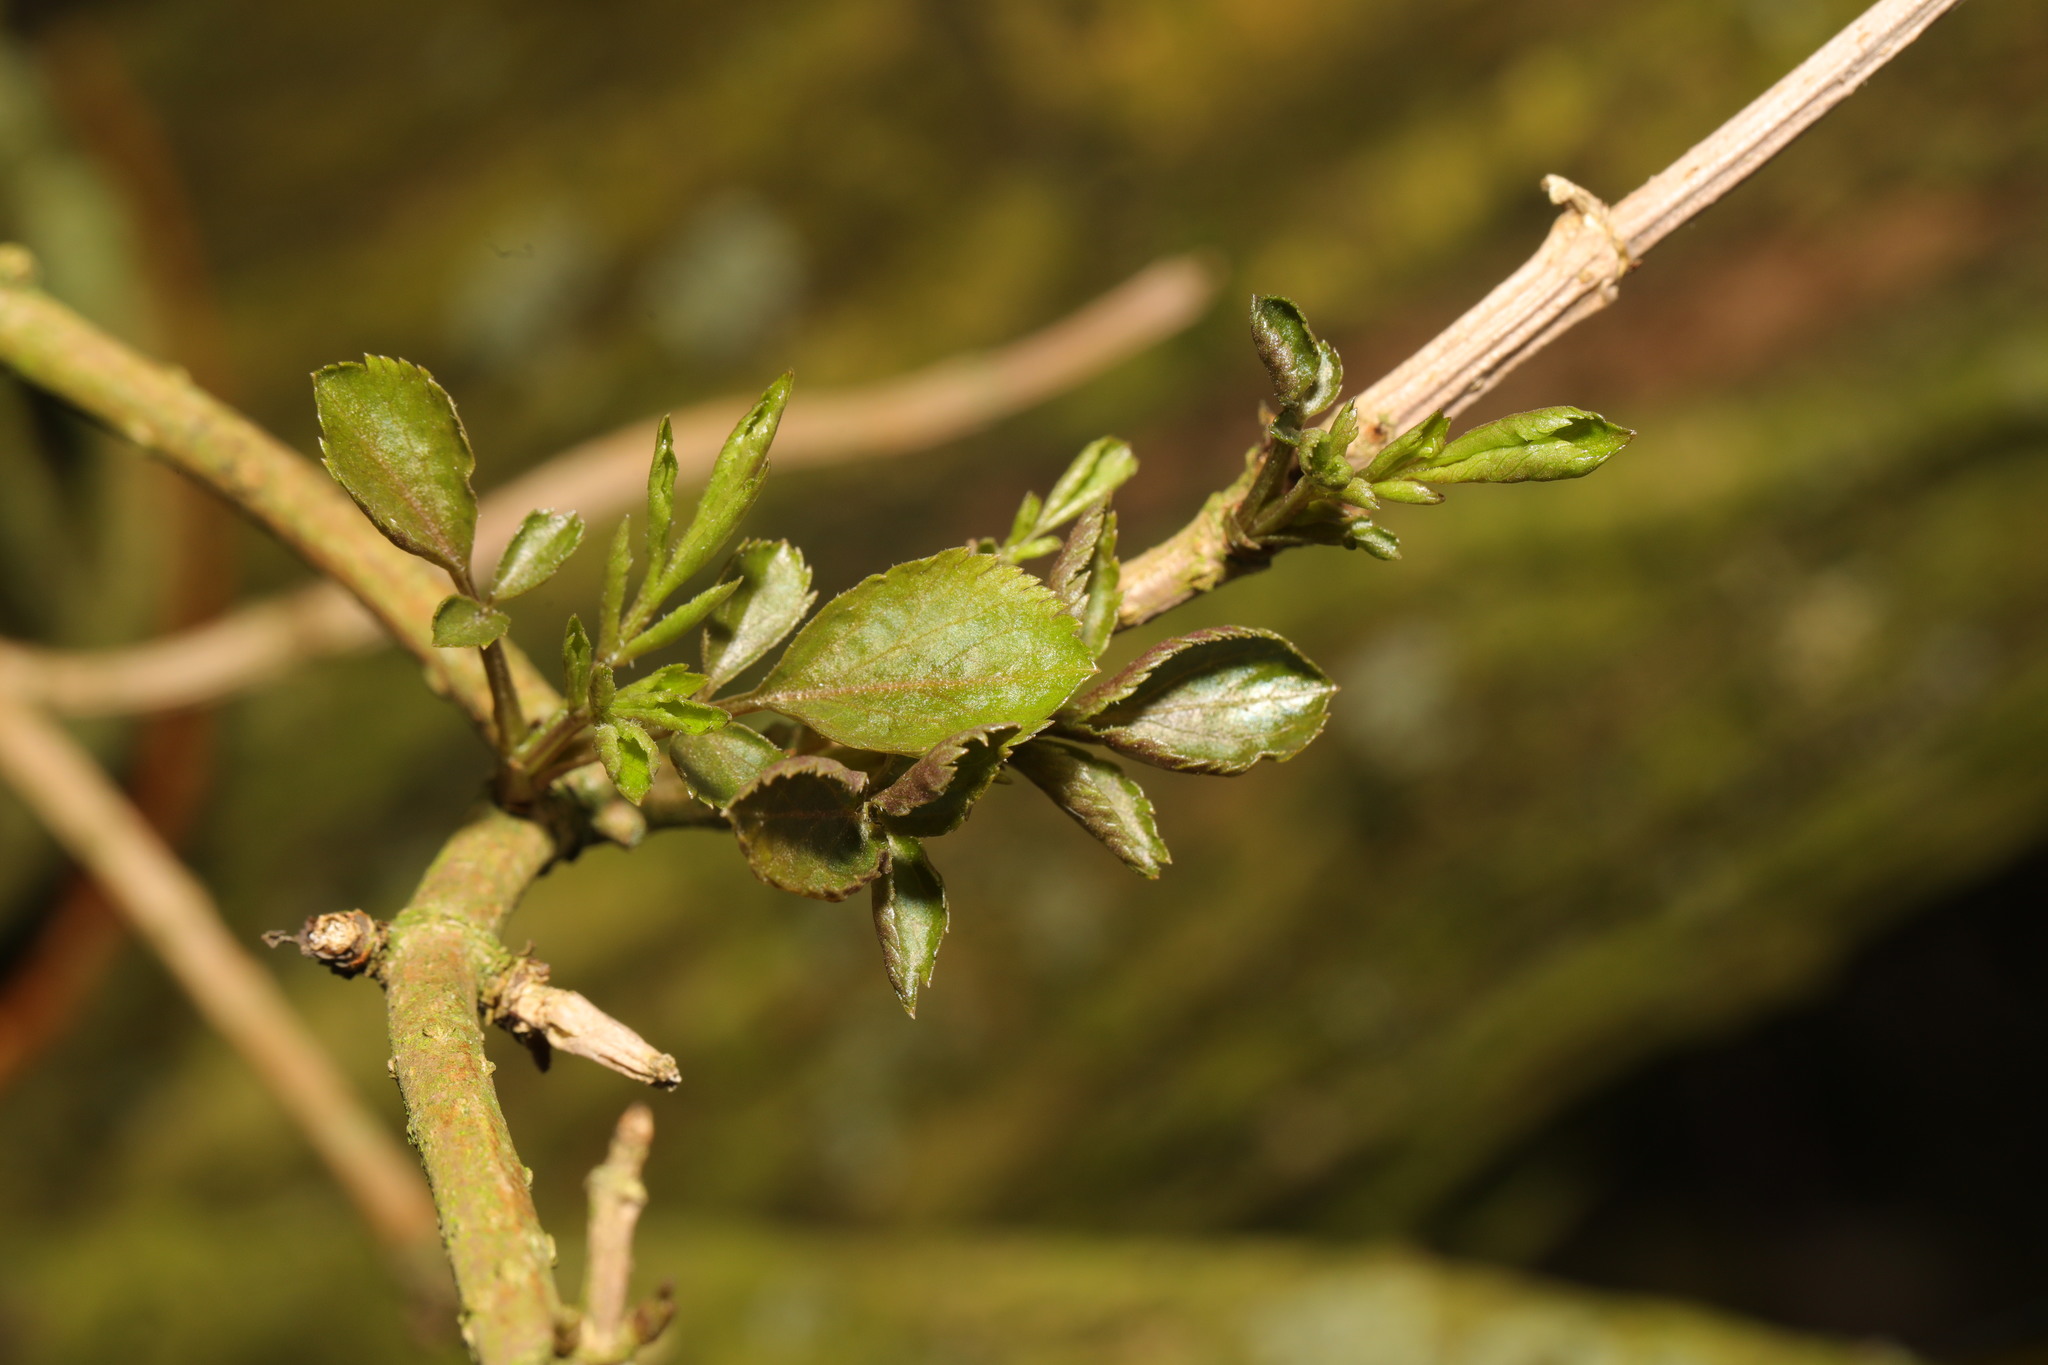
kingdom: Plantae
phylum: Tracheophyta
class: Magnoliopsida
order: Dipsacales
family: Viburnaceae
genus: Sambucus
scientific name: Sambucus nigra
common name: Elder
